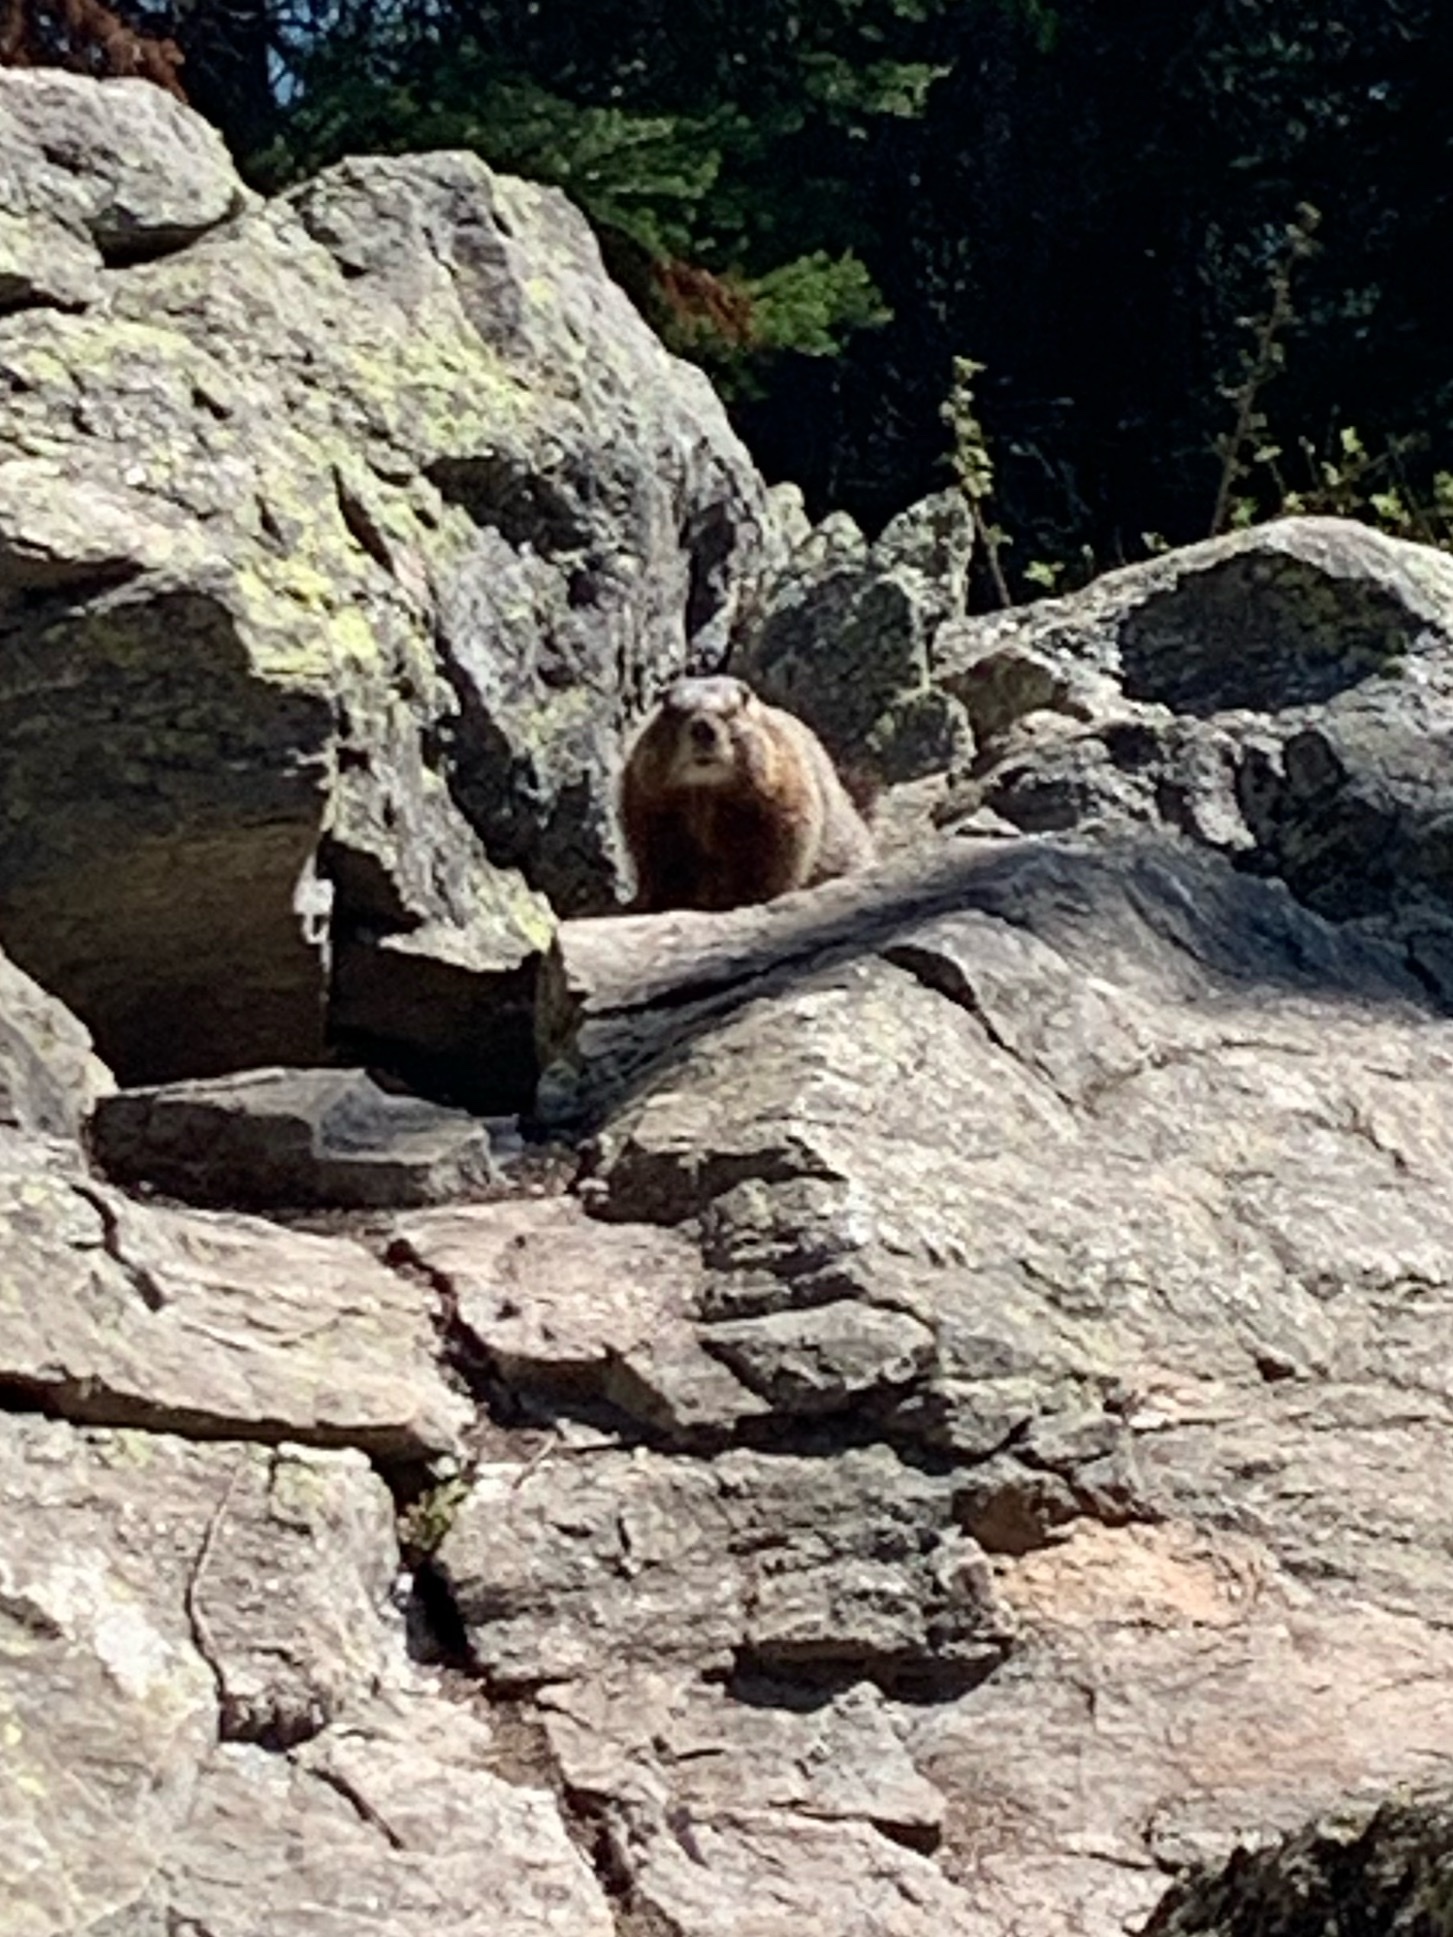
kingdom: Animalia
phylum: Chordata
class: Mammalia
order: Rodentia
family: Sciuridae
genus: Marmota
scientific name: Marmota flaviventris
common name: Yellow-bellied marmot
